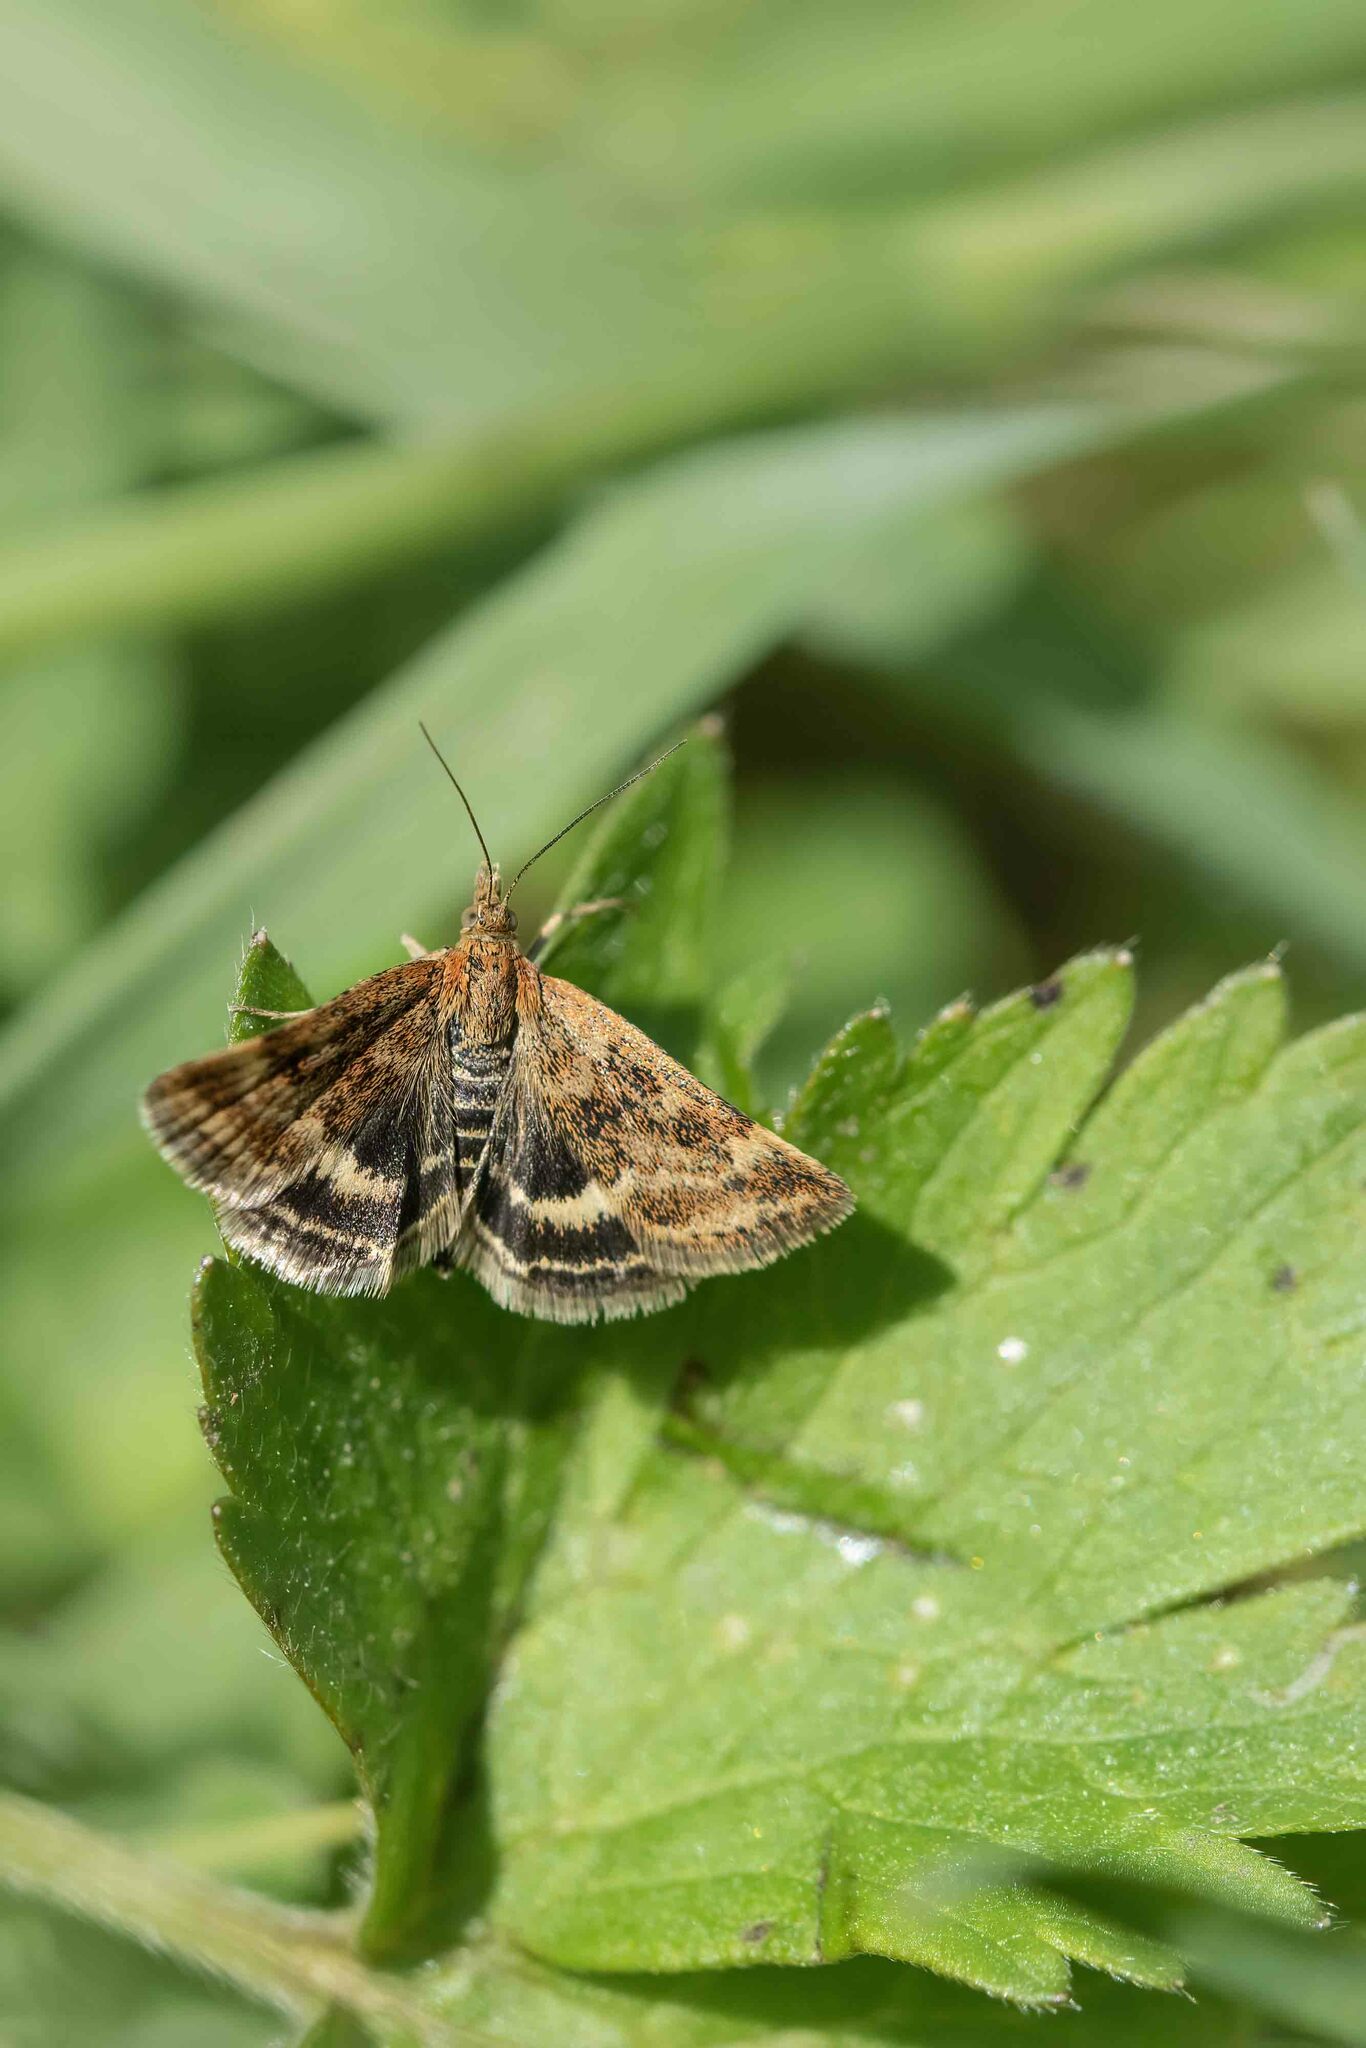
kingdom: Animalia
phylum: Arthropoda
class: Insecta
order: Lepidoptera
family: Crambidae
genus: Pyrausta
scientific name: Pyrausta despicata
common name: Straw-barred pearl
